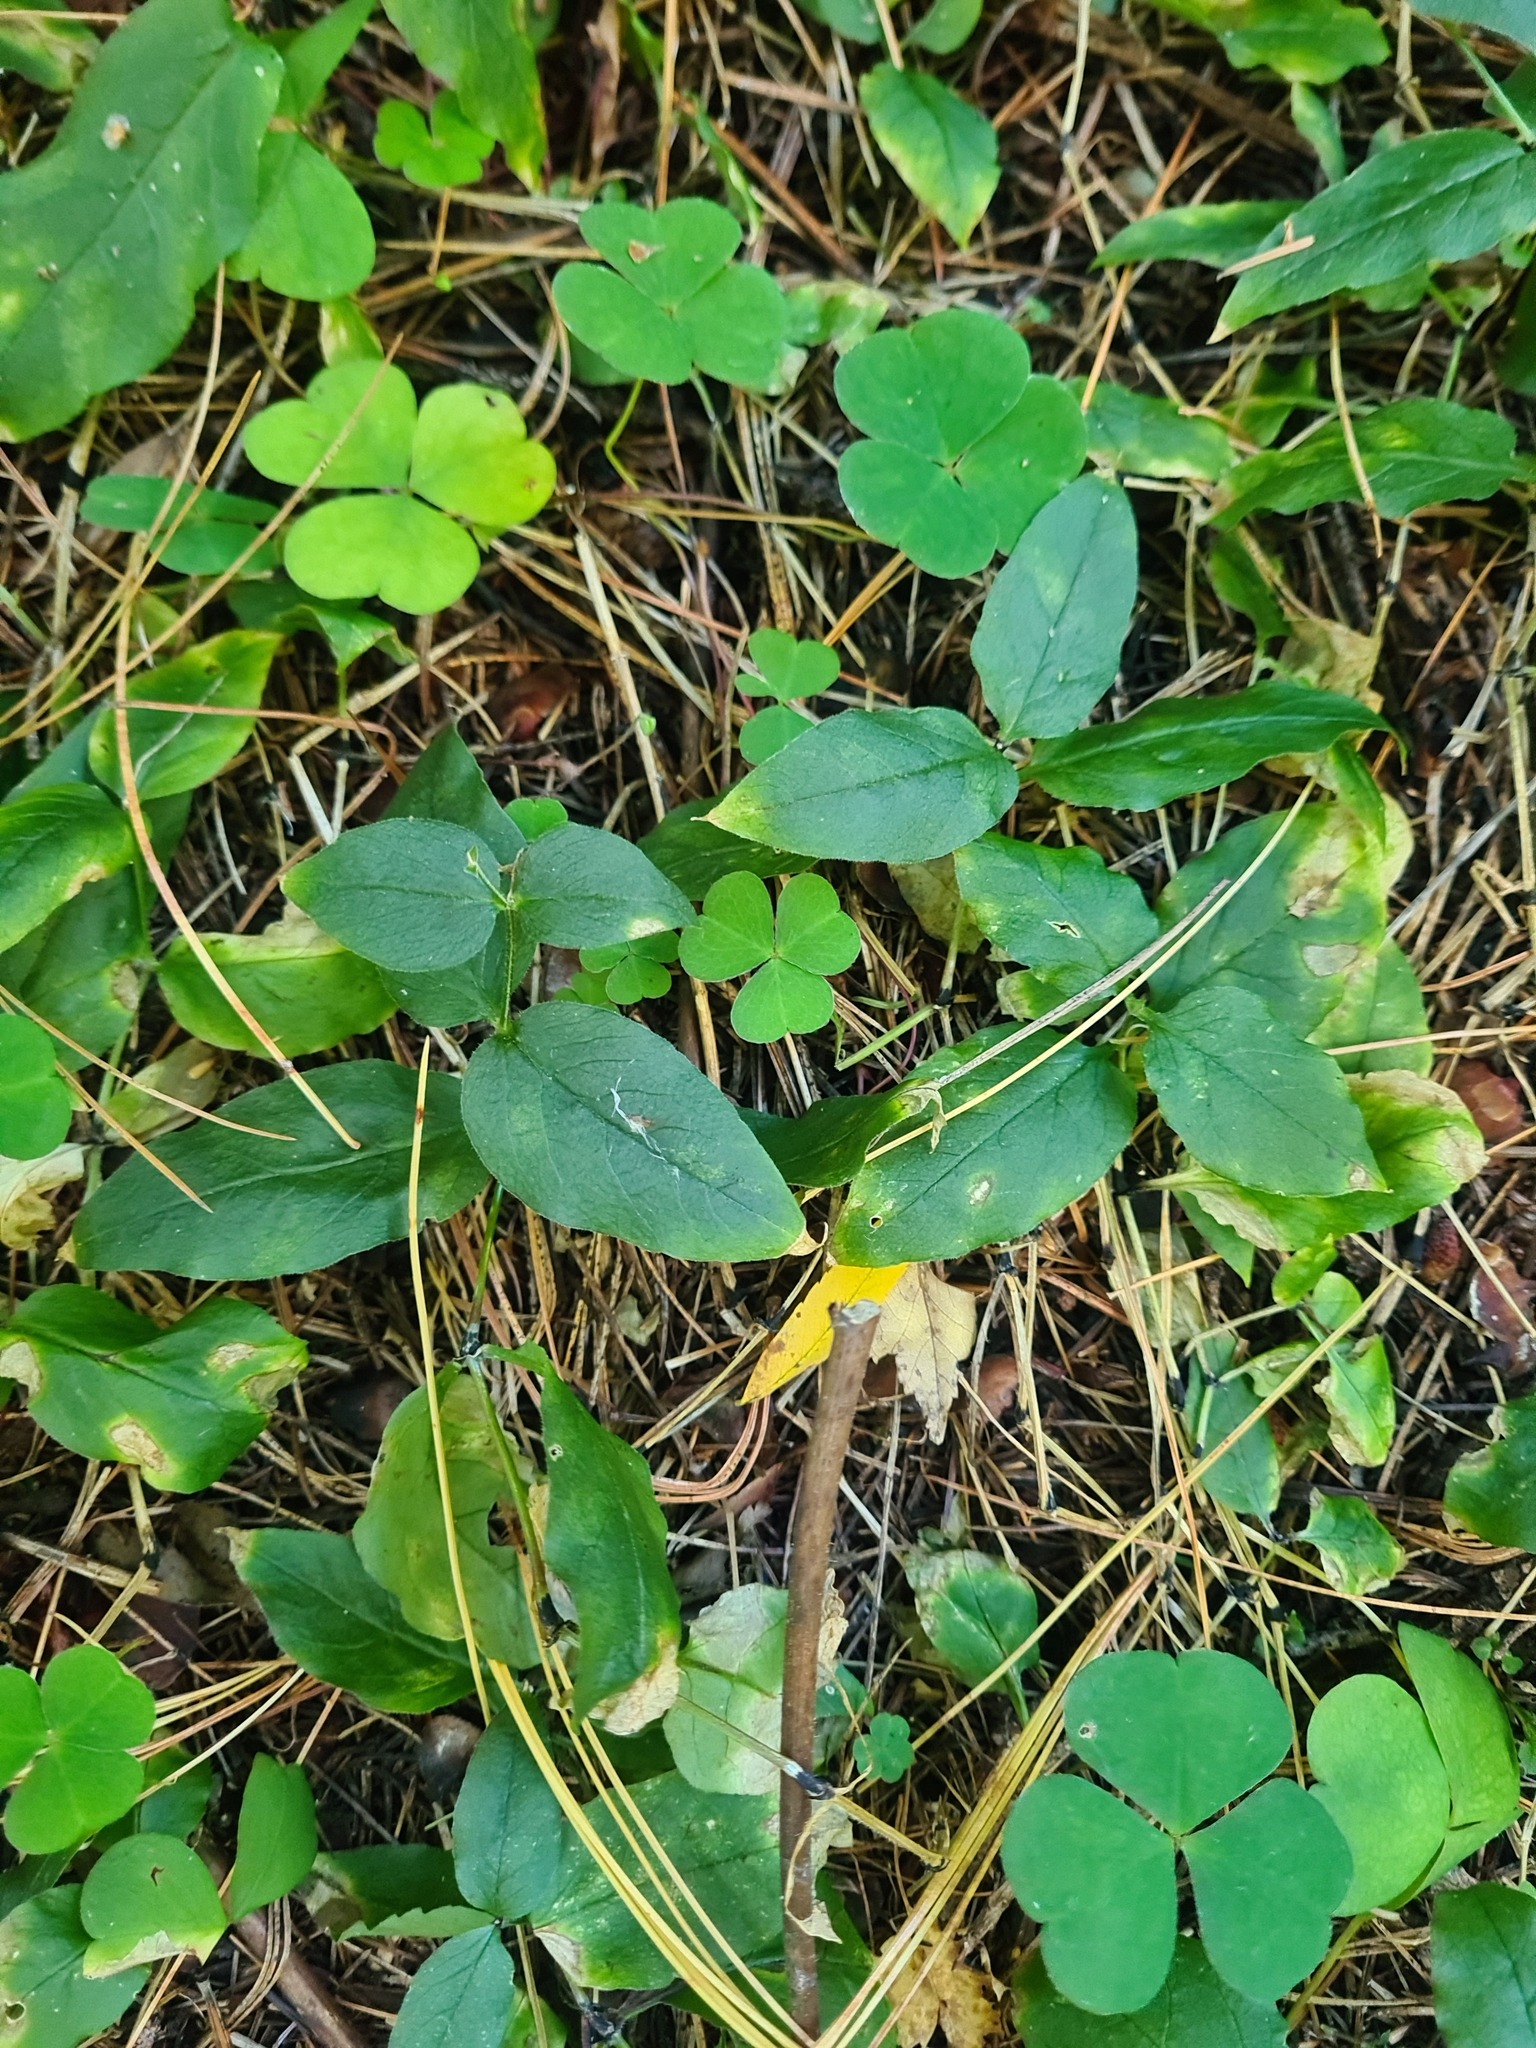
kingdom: Plantae
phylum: Tracheophyta
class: Magnoliopsida
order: Caryophyllales
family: Caryophyllaceae
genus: Stellaria
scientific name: Stellaria bungeana
